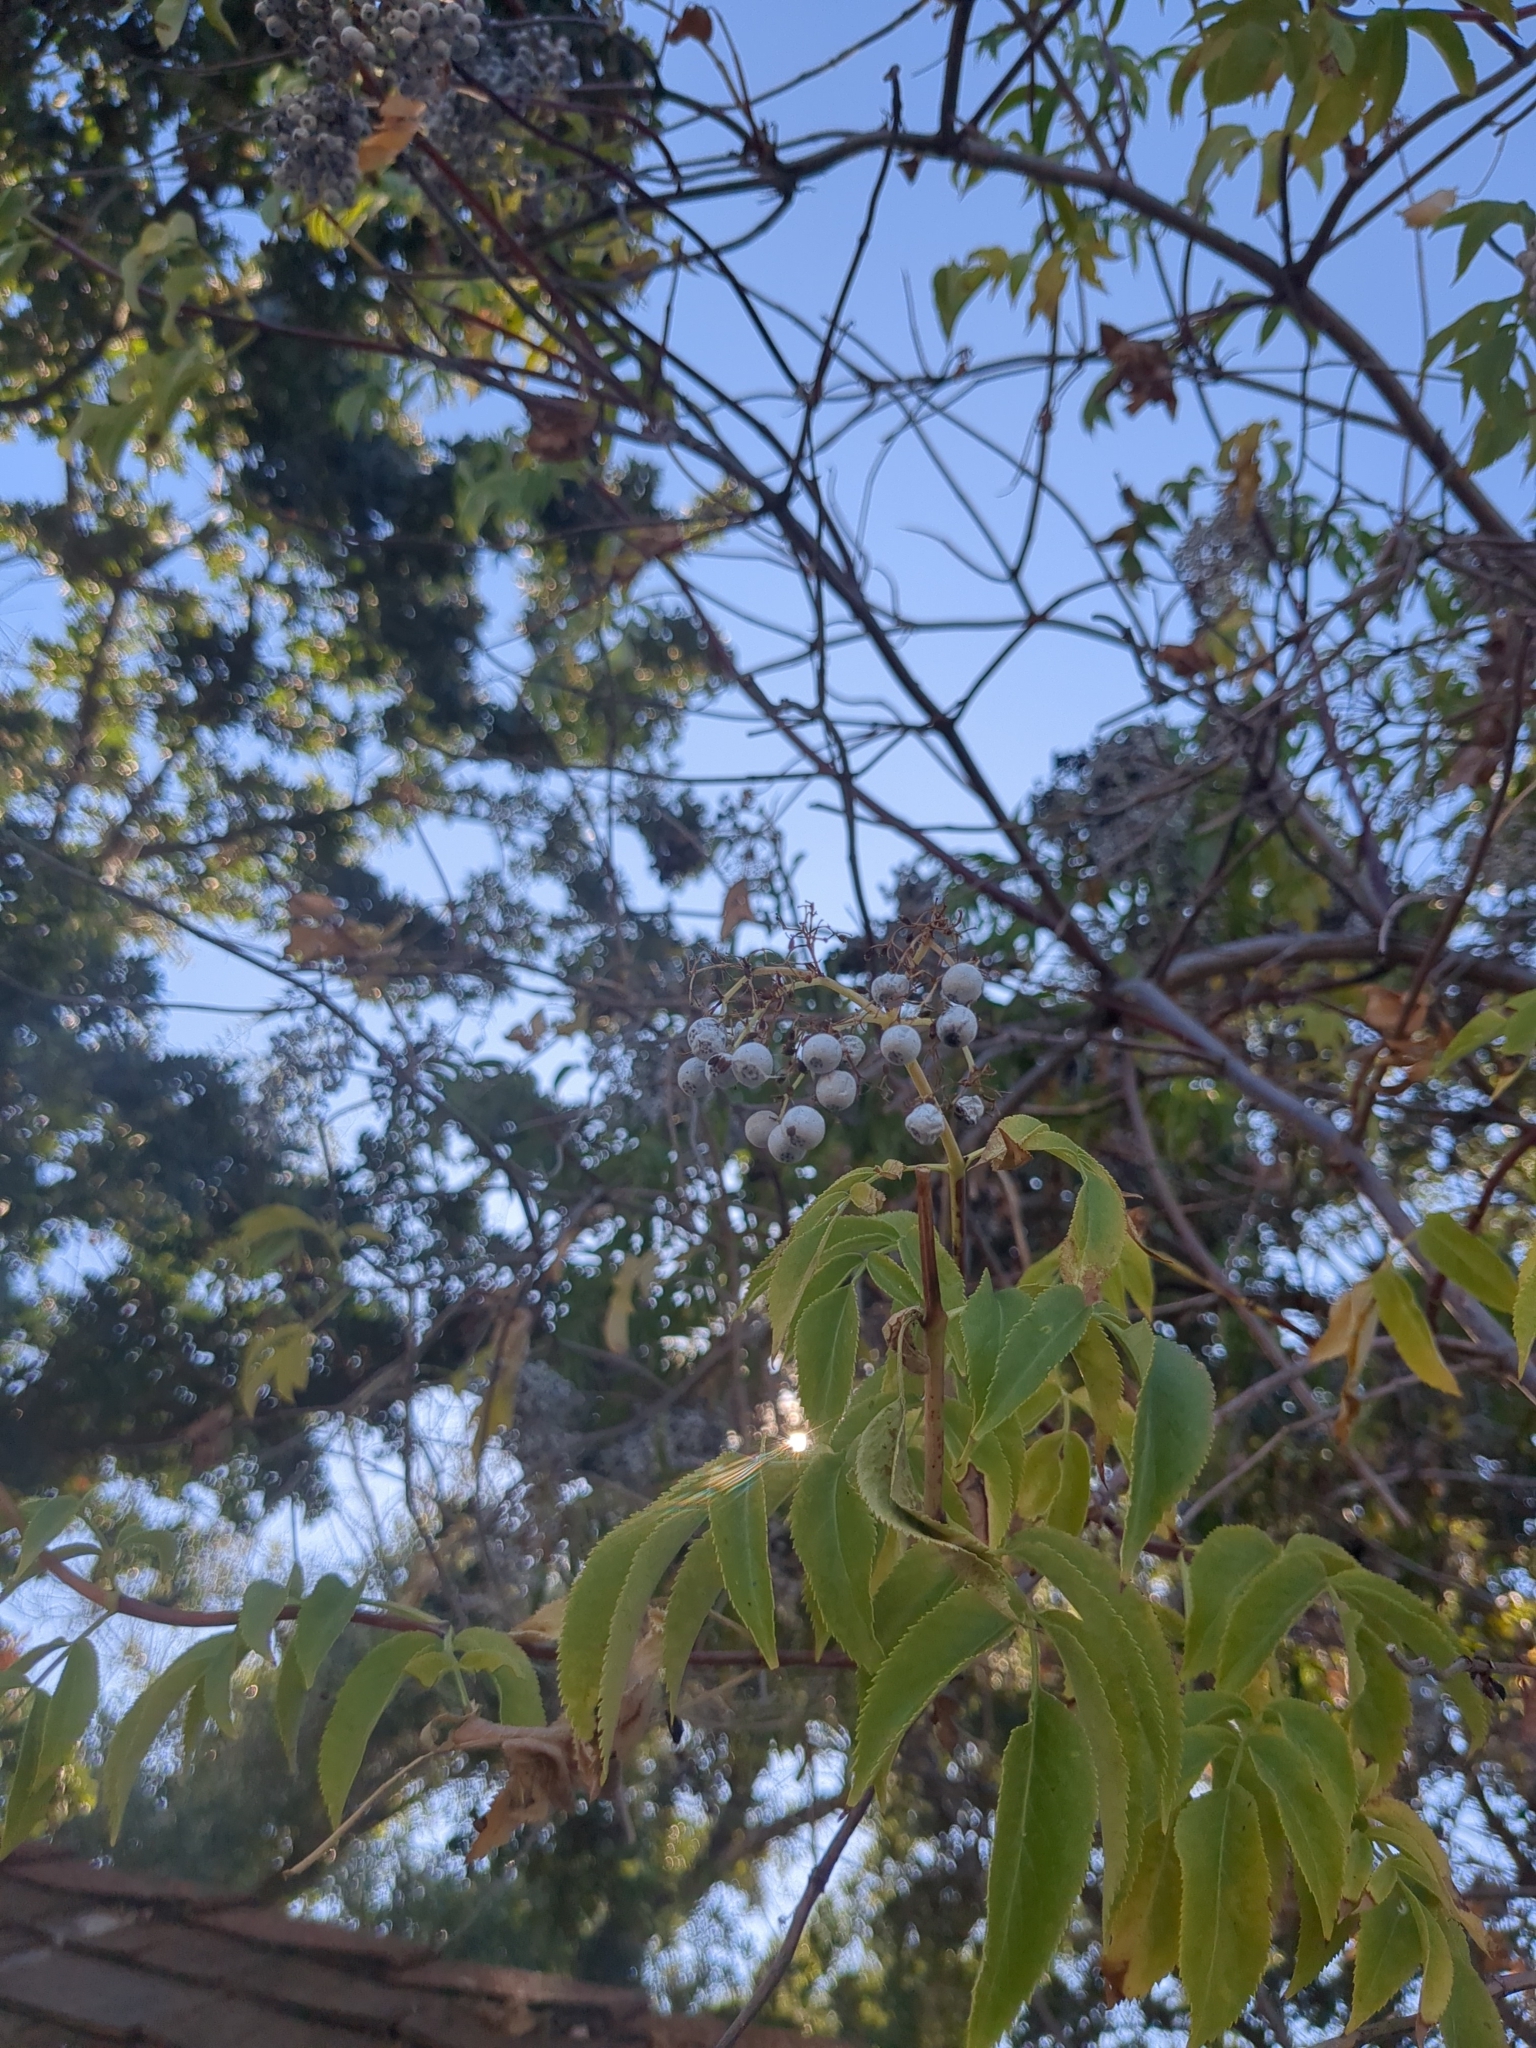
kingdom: Plantae
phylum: Tracheophyta
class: Magnoliopsida
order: Dipsacales
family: Viburnaceae
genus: Sambucus
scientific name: Sambucus cerulea
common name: Blue elder
